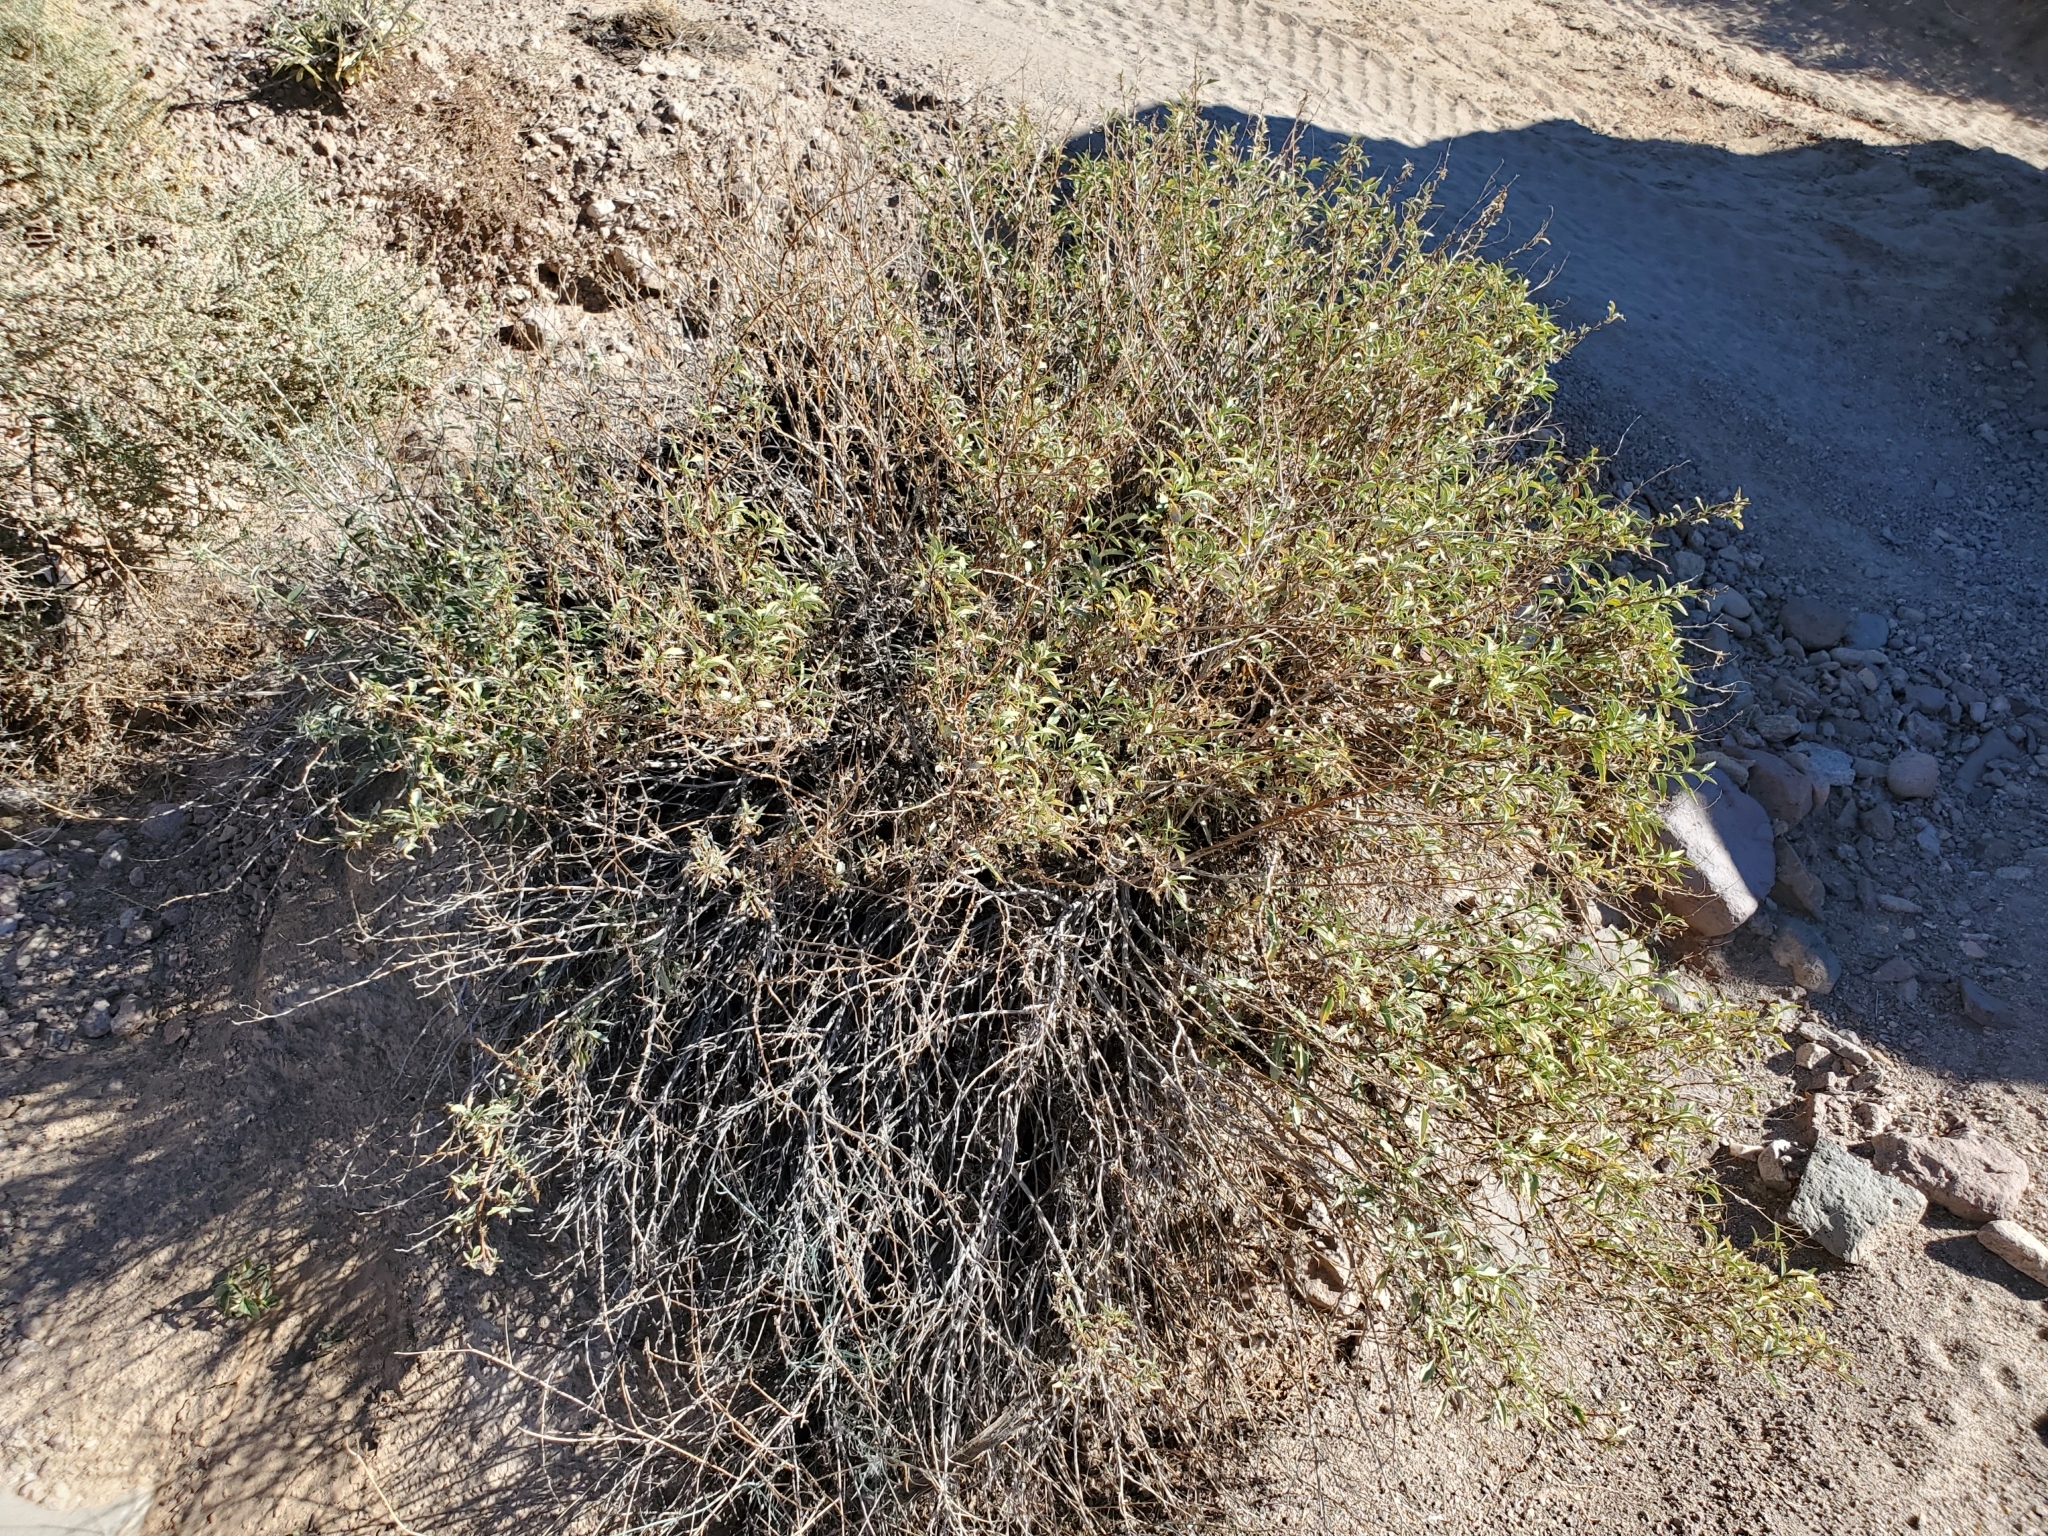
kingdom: Plantae
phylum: Tracheophyta
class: Magnoliopsida
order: Asterales
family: Asteraceae
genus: Ambrosia
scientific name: Ambrosia deltoidea
